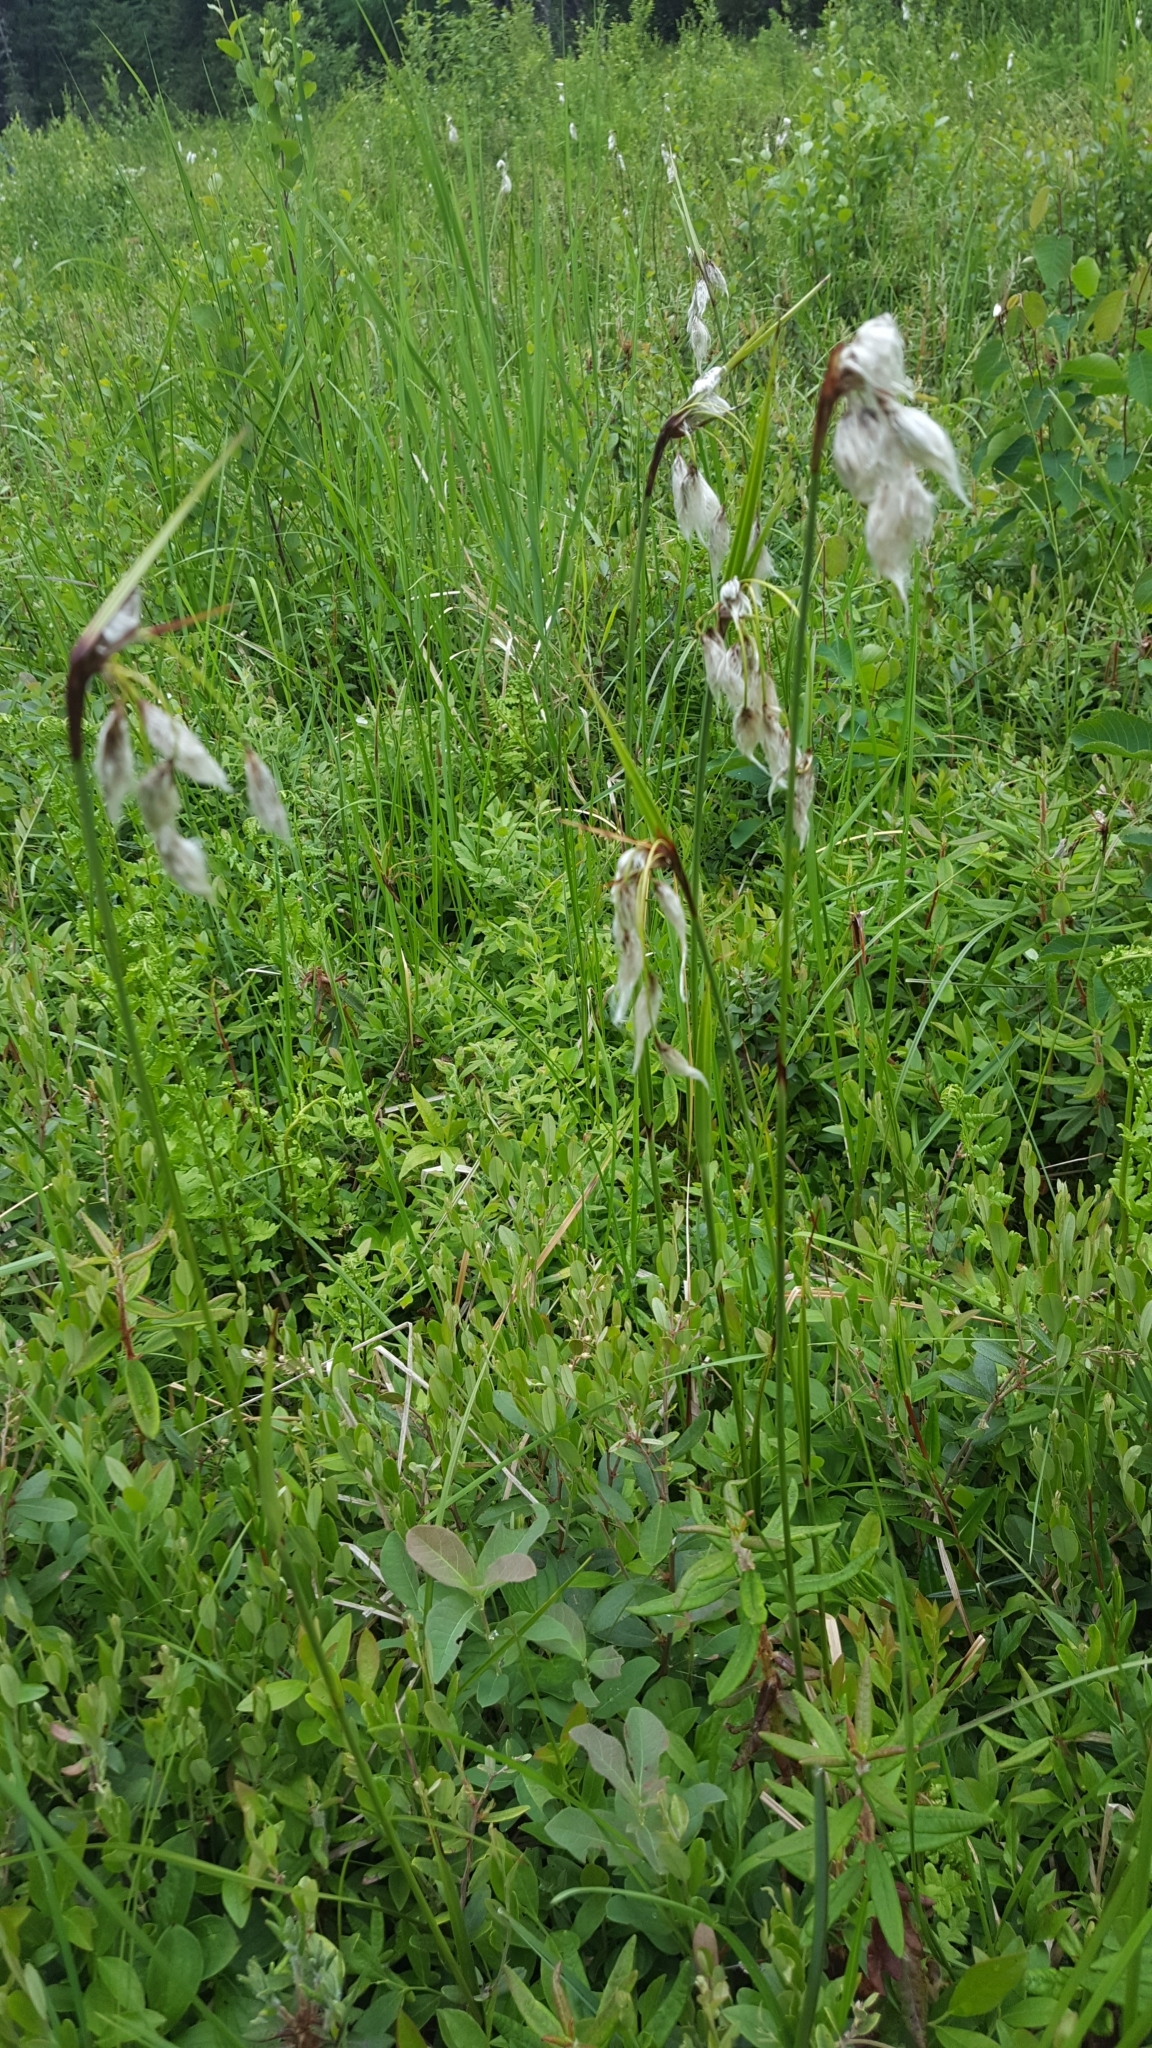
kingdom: Plantae
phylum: Tracheophyta
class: Liliopsida
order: Poales
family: Cyperaceae
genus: Eriophorum
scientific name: Eriophorum angustifolium
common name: Common cottongrass
